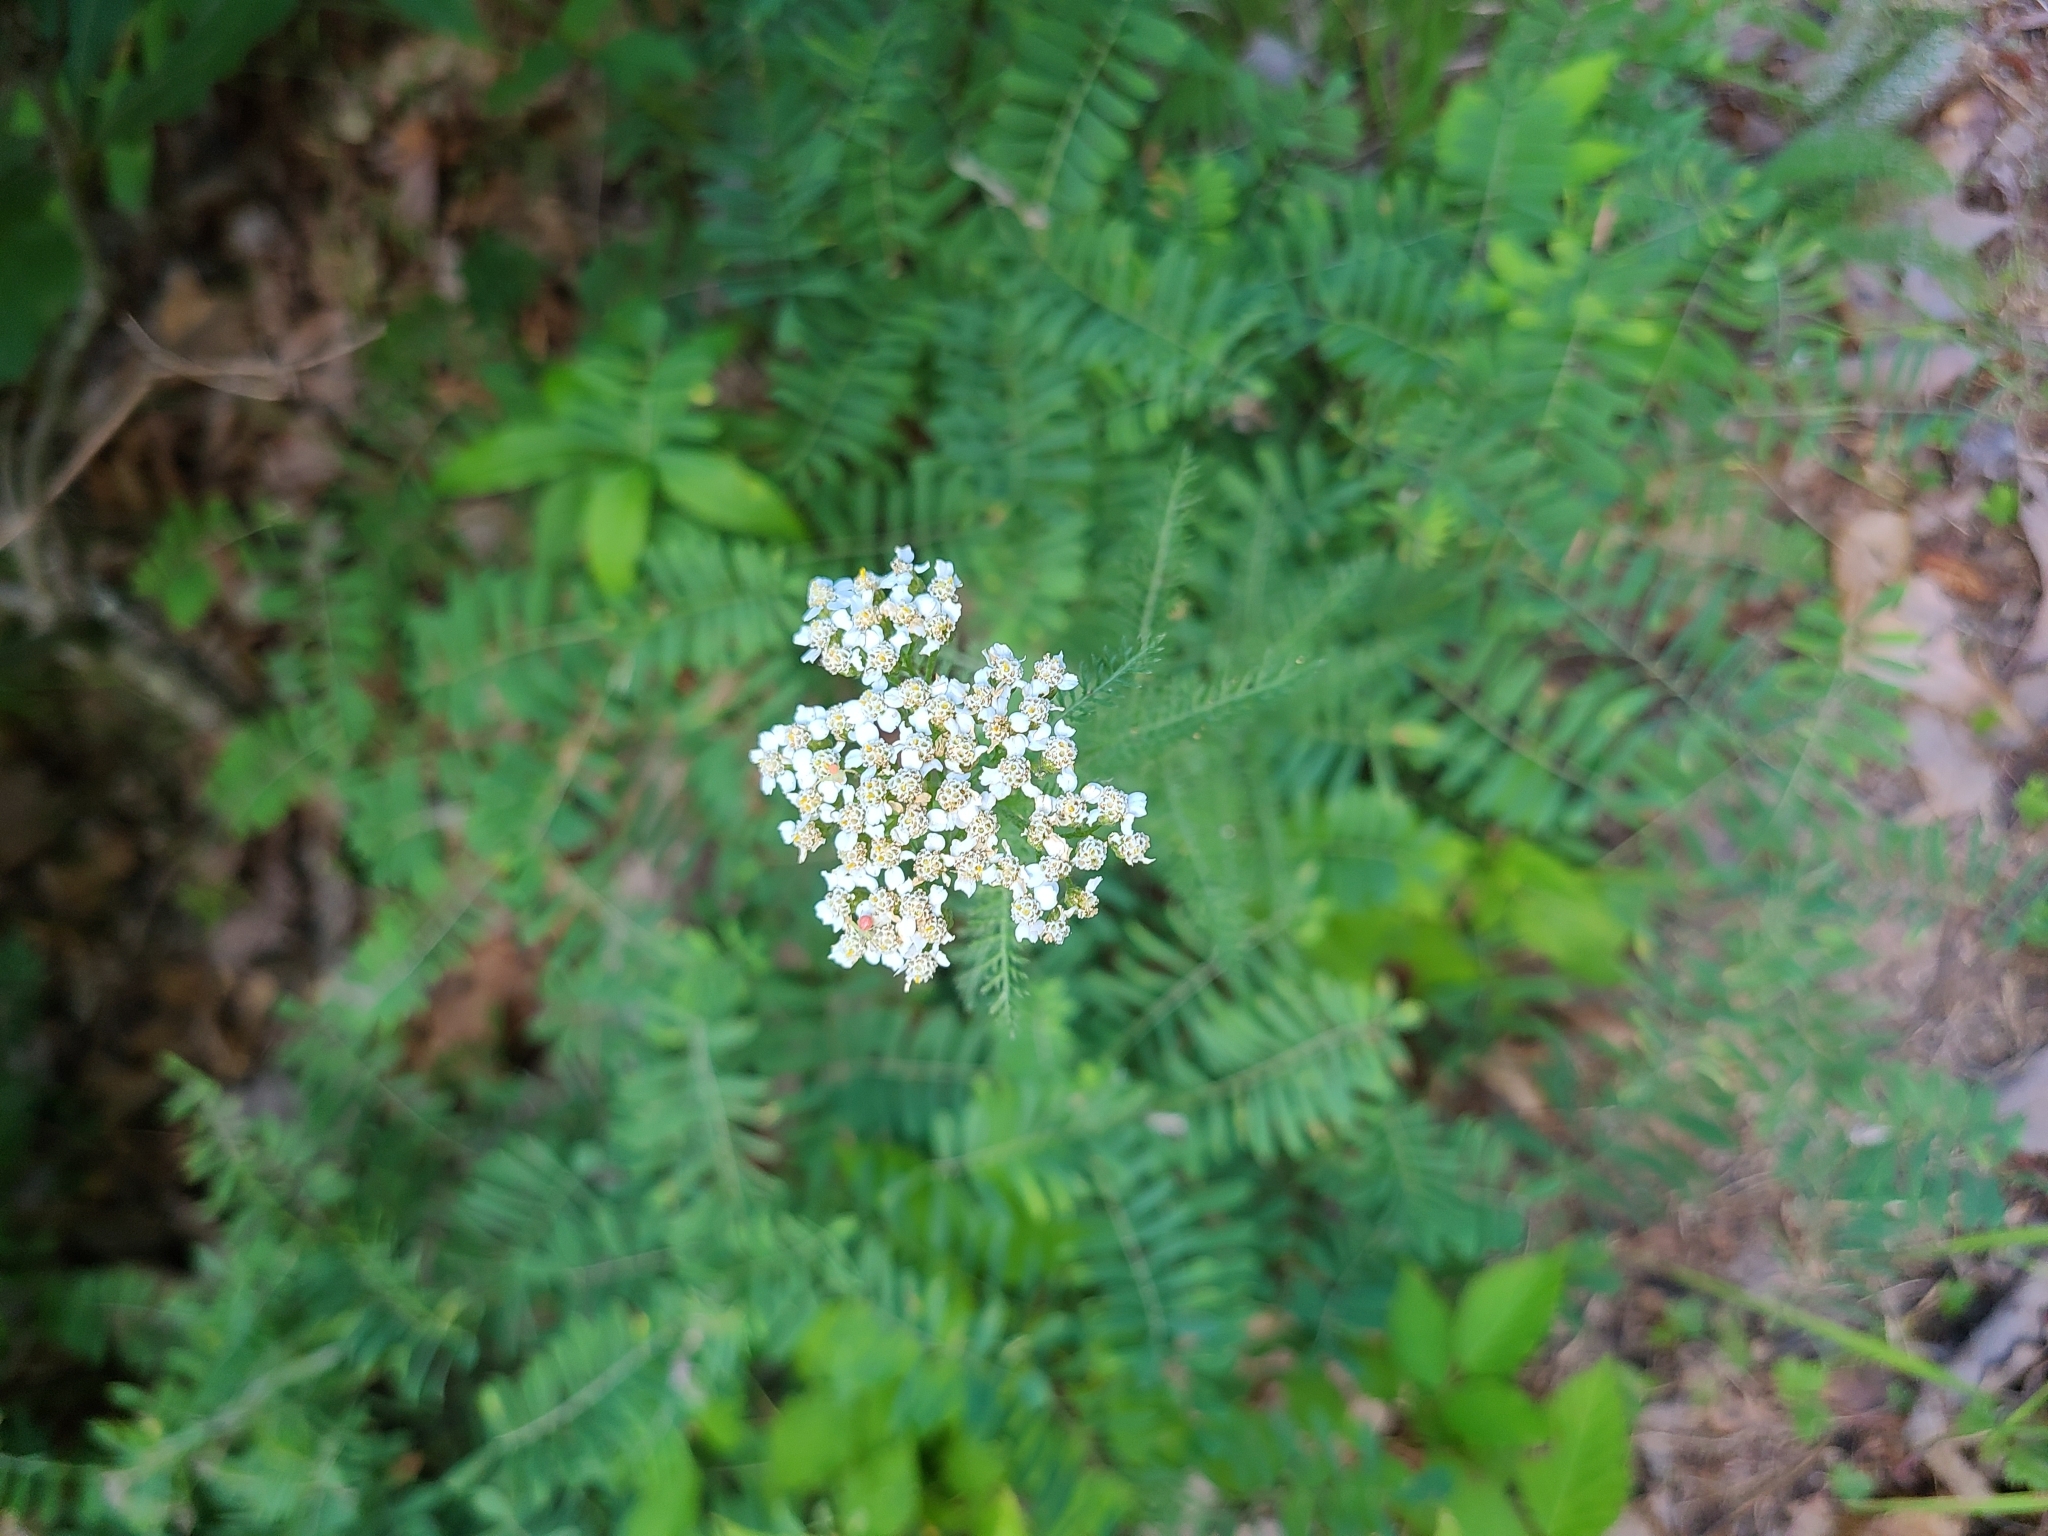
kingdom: Plantae
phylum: Tracheophyta
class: Magnoliopsida
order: Asterales
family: Asteraceae
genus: Achillea
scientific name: Achillea millefolium
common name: Yarrow
